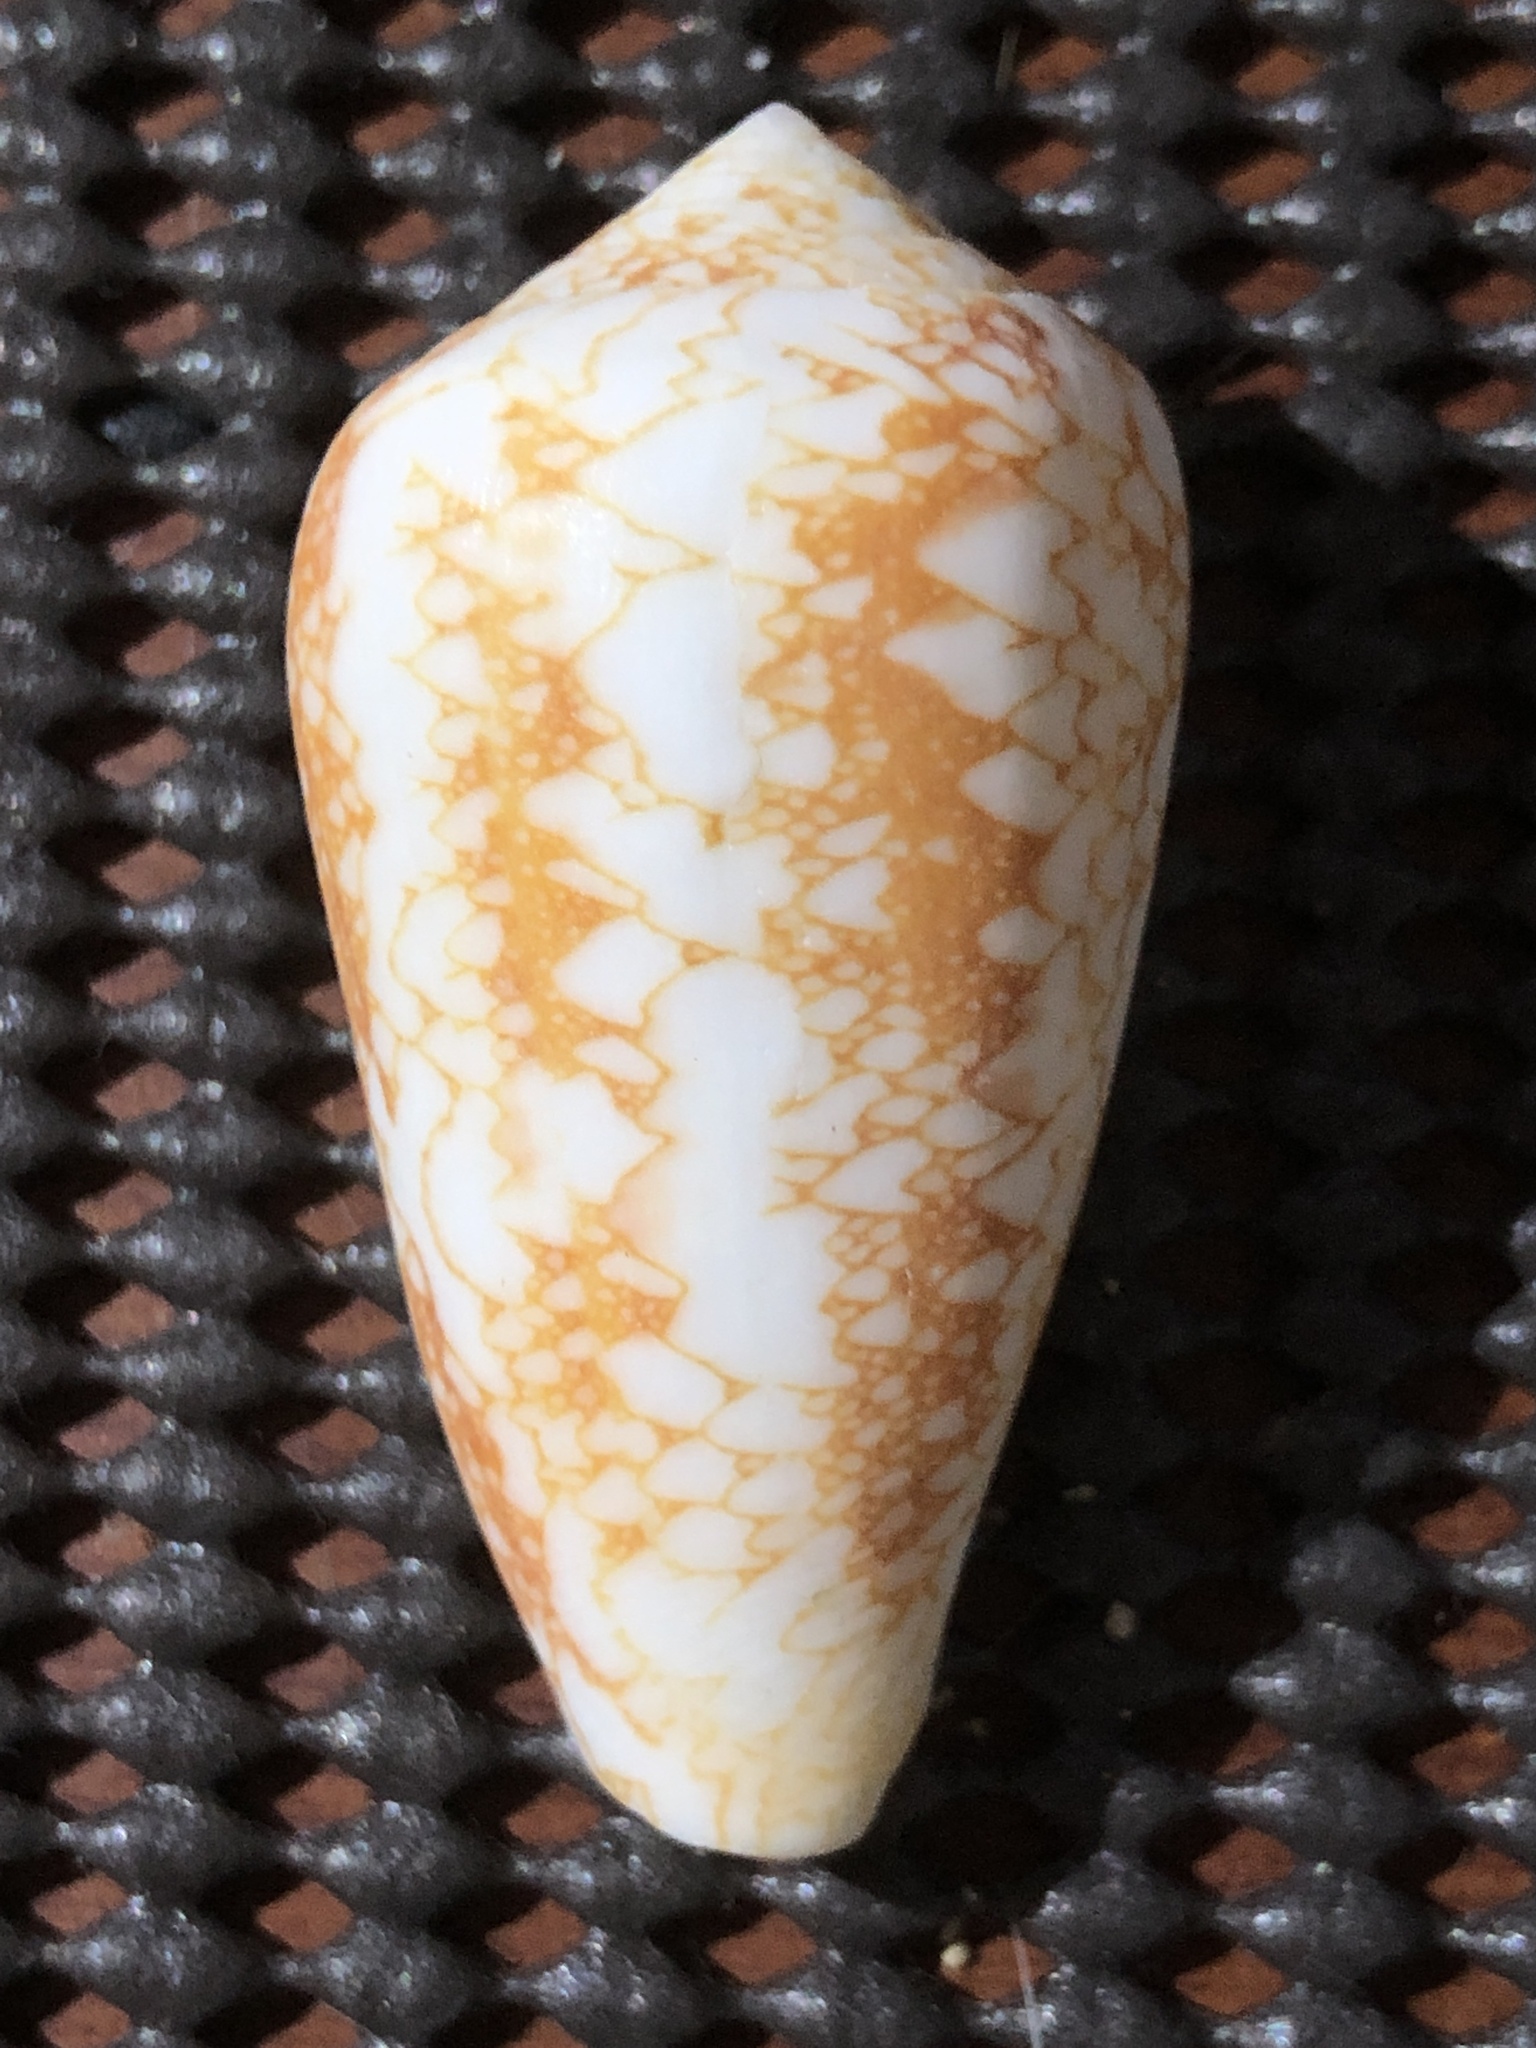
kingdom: Animalia
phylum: Mollusca
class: Gastropoda
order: Neogastropoda
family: Conidae
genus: Conus
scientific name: Conus omaria
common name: Omaria cone
